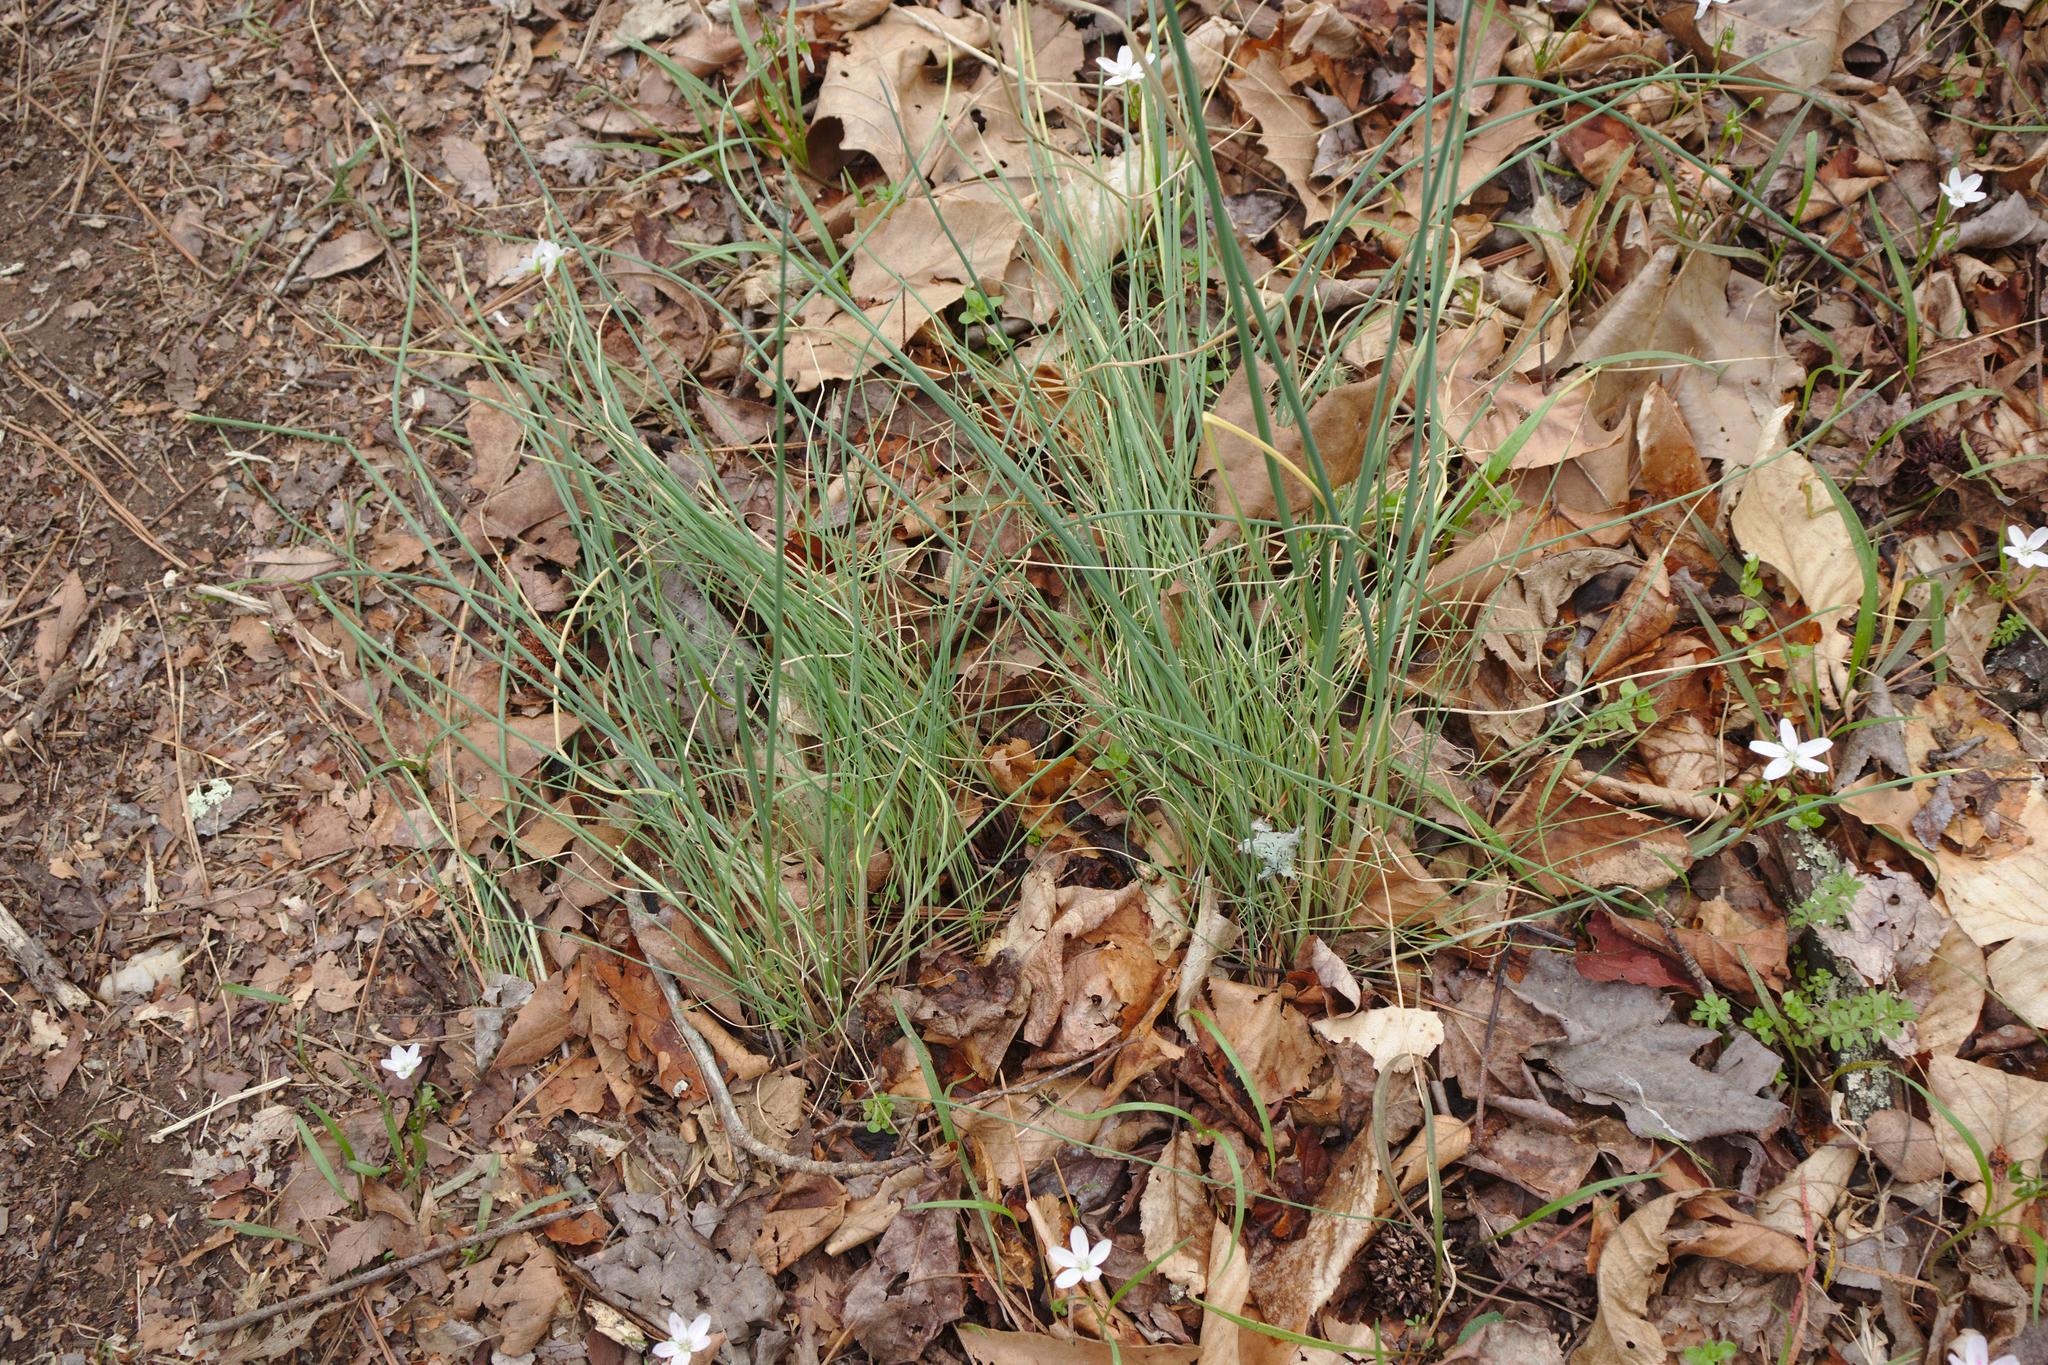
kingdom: Plantae
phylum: Tracheophyta
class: Liliopsida
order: Asparagales
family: Amaryllidaceae
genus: Allium
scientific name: Allium vineale
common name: Crow garlic
